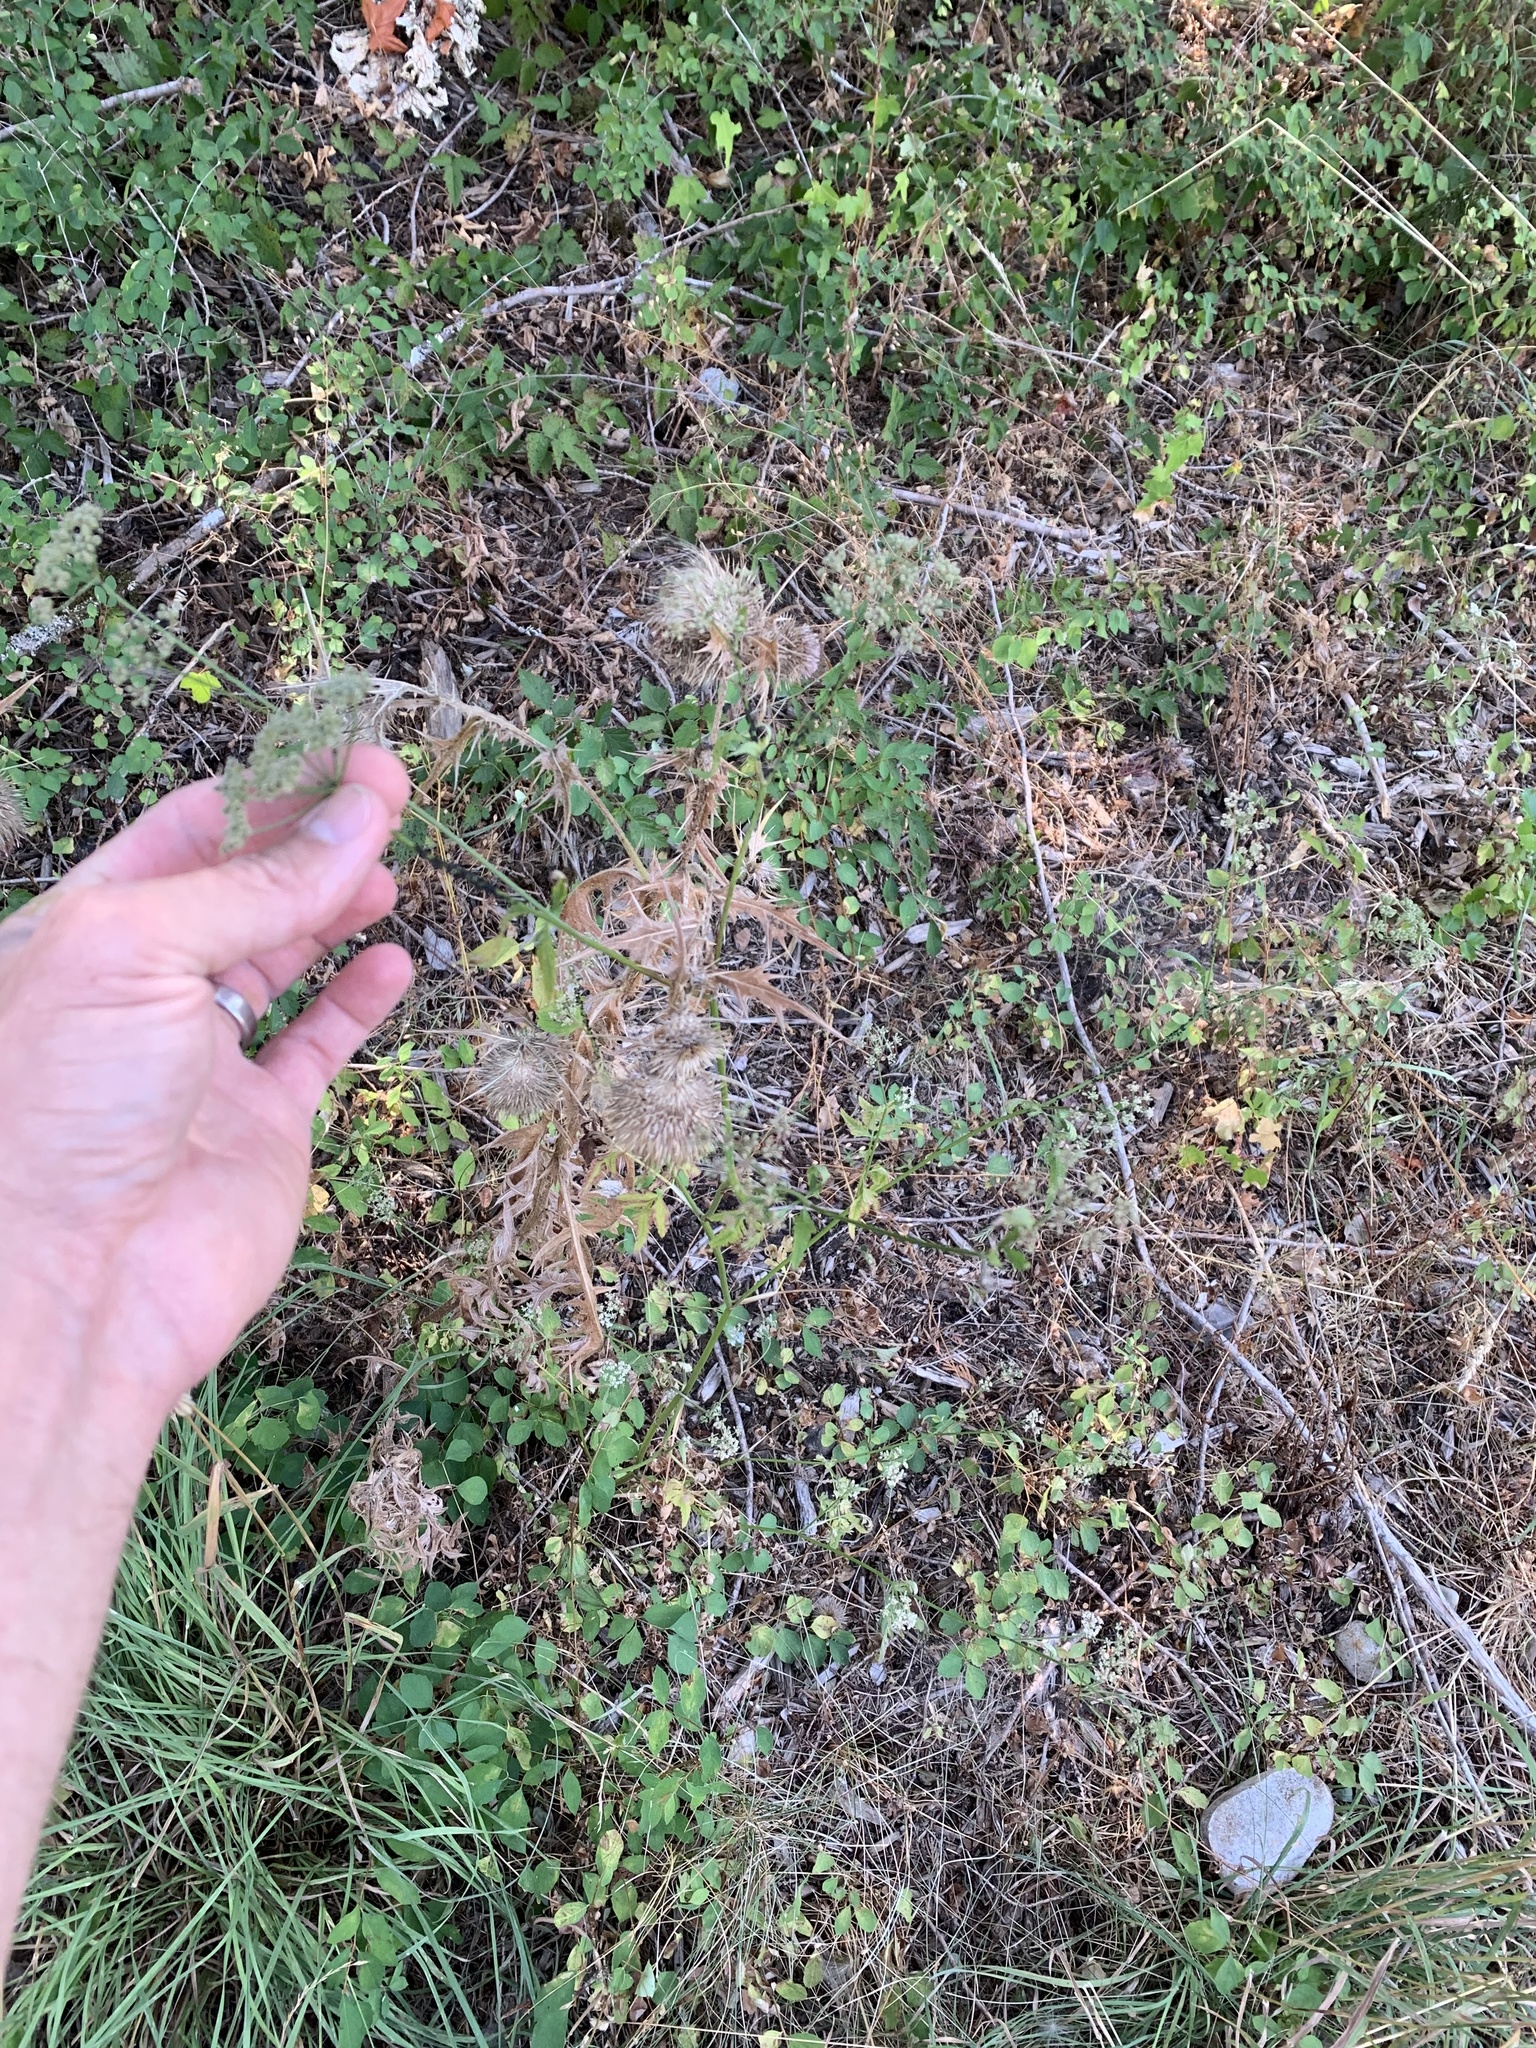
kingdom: Plantae
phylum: Tracheophyta
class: Magnoliopsida
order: Apiales
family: Apiaceae
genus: Torilis
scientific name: Torilis japonica
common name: Upright hedge-parsley
